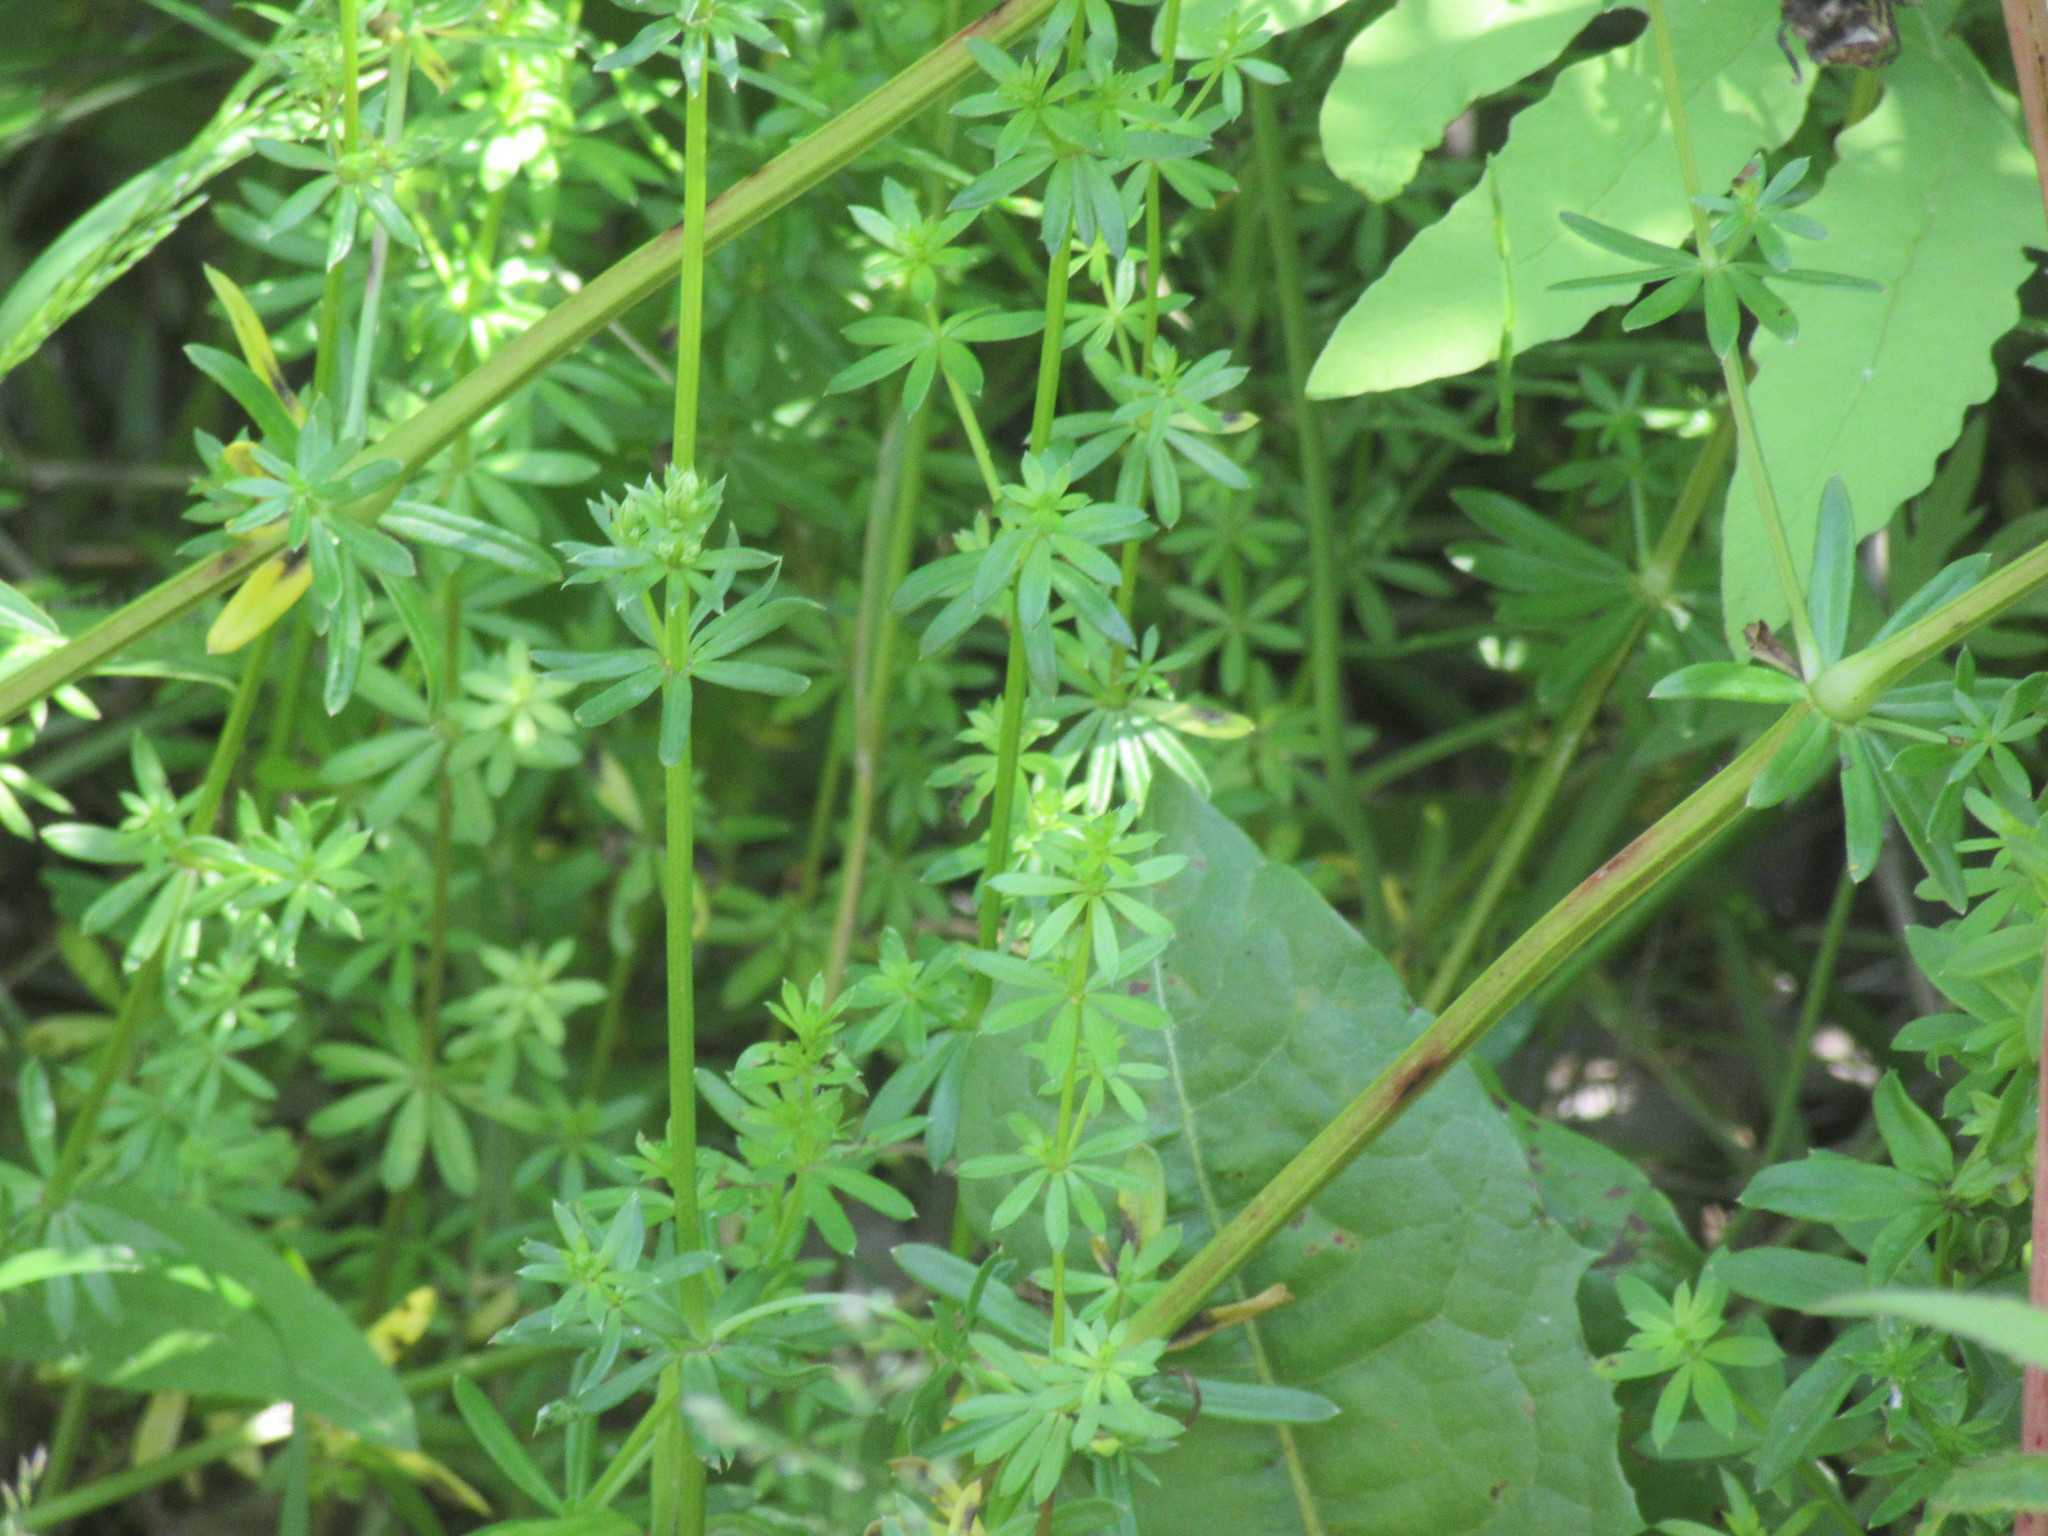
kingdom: Plantae
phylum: Tracheophyta
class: Magnoliopsida
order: Gentianales
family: Rubiaceae
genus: Galium
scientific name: Galium mollugo
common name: Hedge bedstraw
